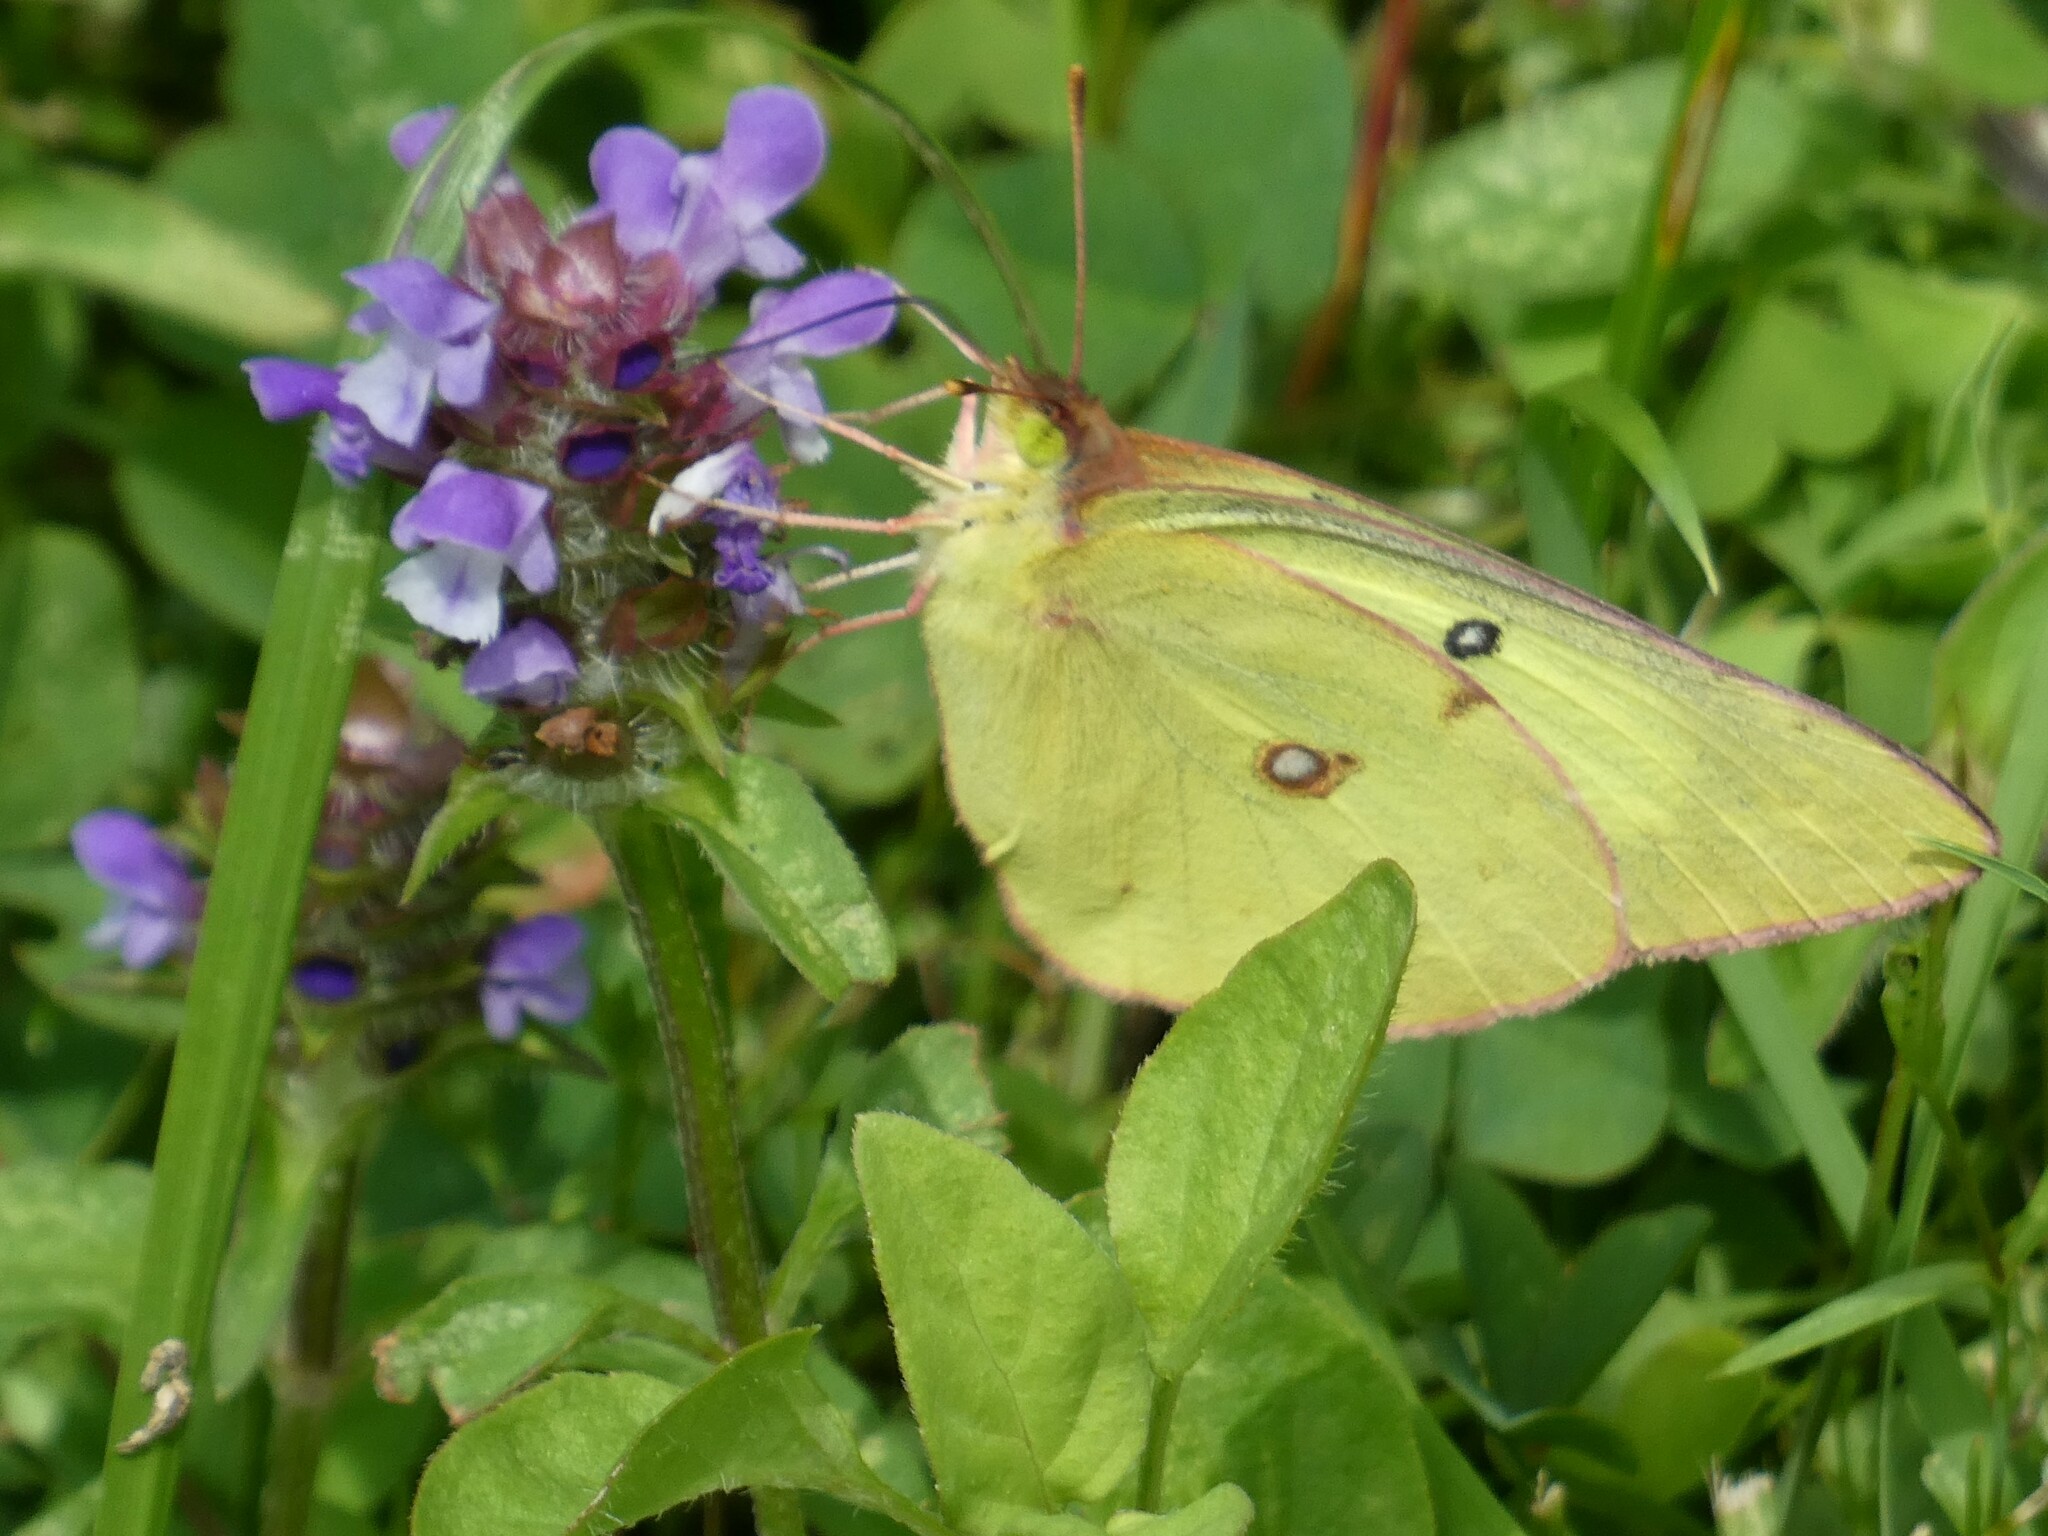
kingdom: Animalia
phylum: Arthropoda
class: Insecta
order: Lepidoptera
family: Pieridae
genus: Colias
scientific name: Colias philodice
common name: Clouded sulphur
